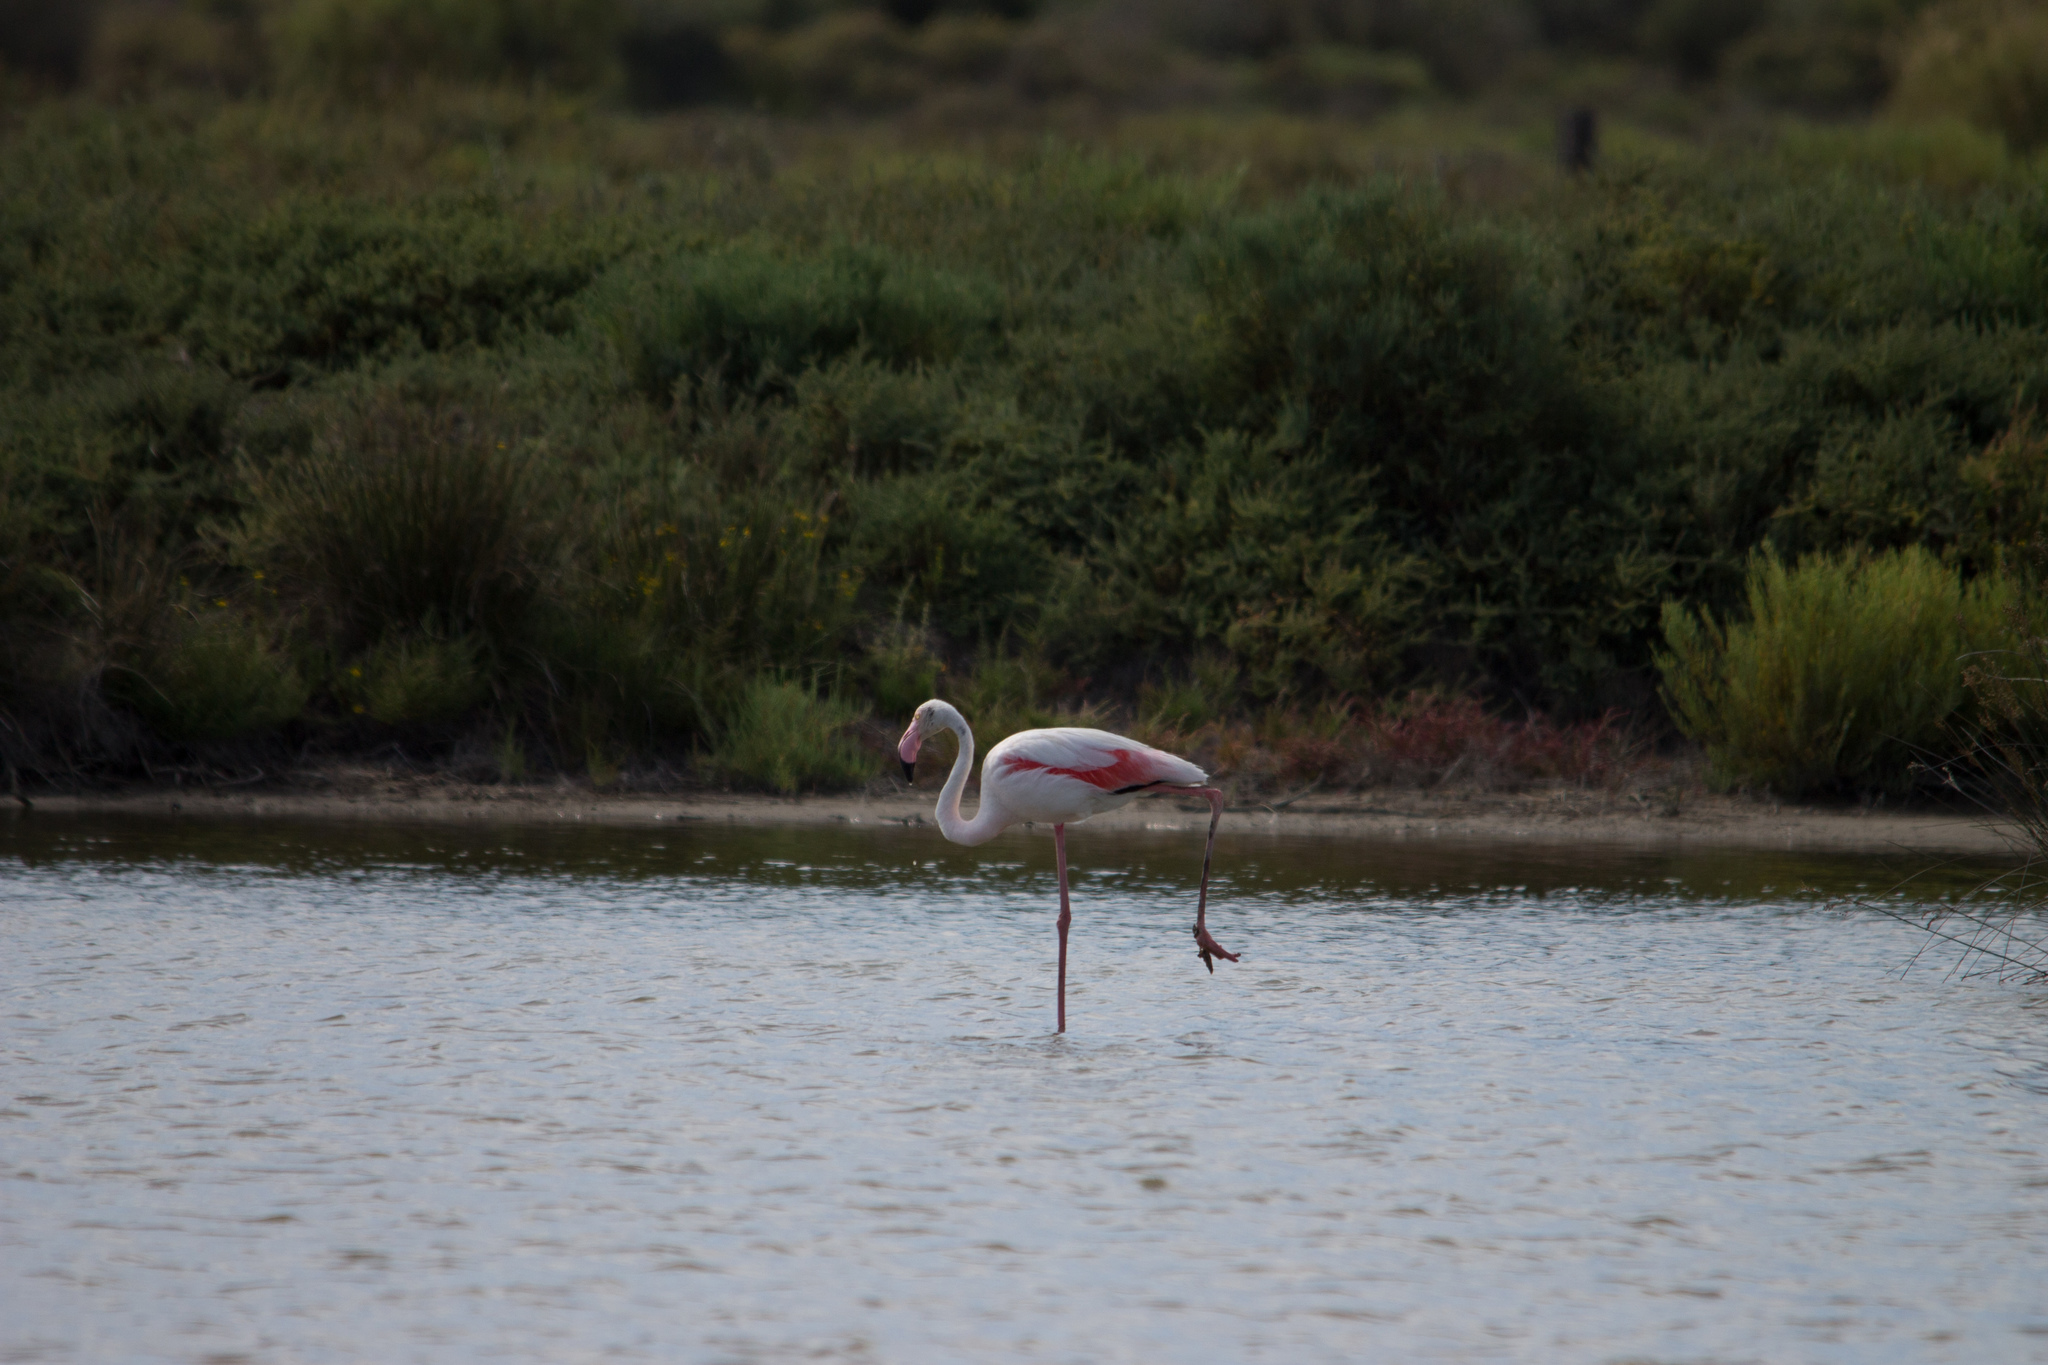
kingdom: Animalia
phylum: Chordata
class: Aves
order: Phoenicopteriformes
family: Phoenicopteridae
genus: Phoenicopterus
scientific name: Phoenicopterus roseus
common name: Greater flamingo
